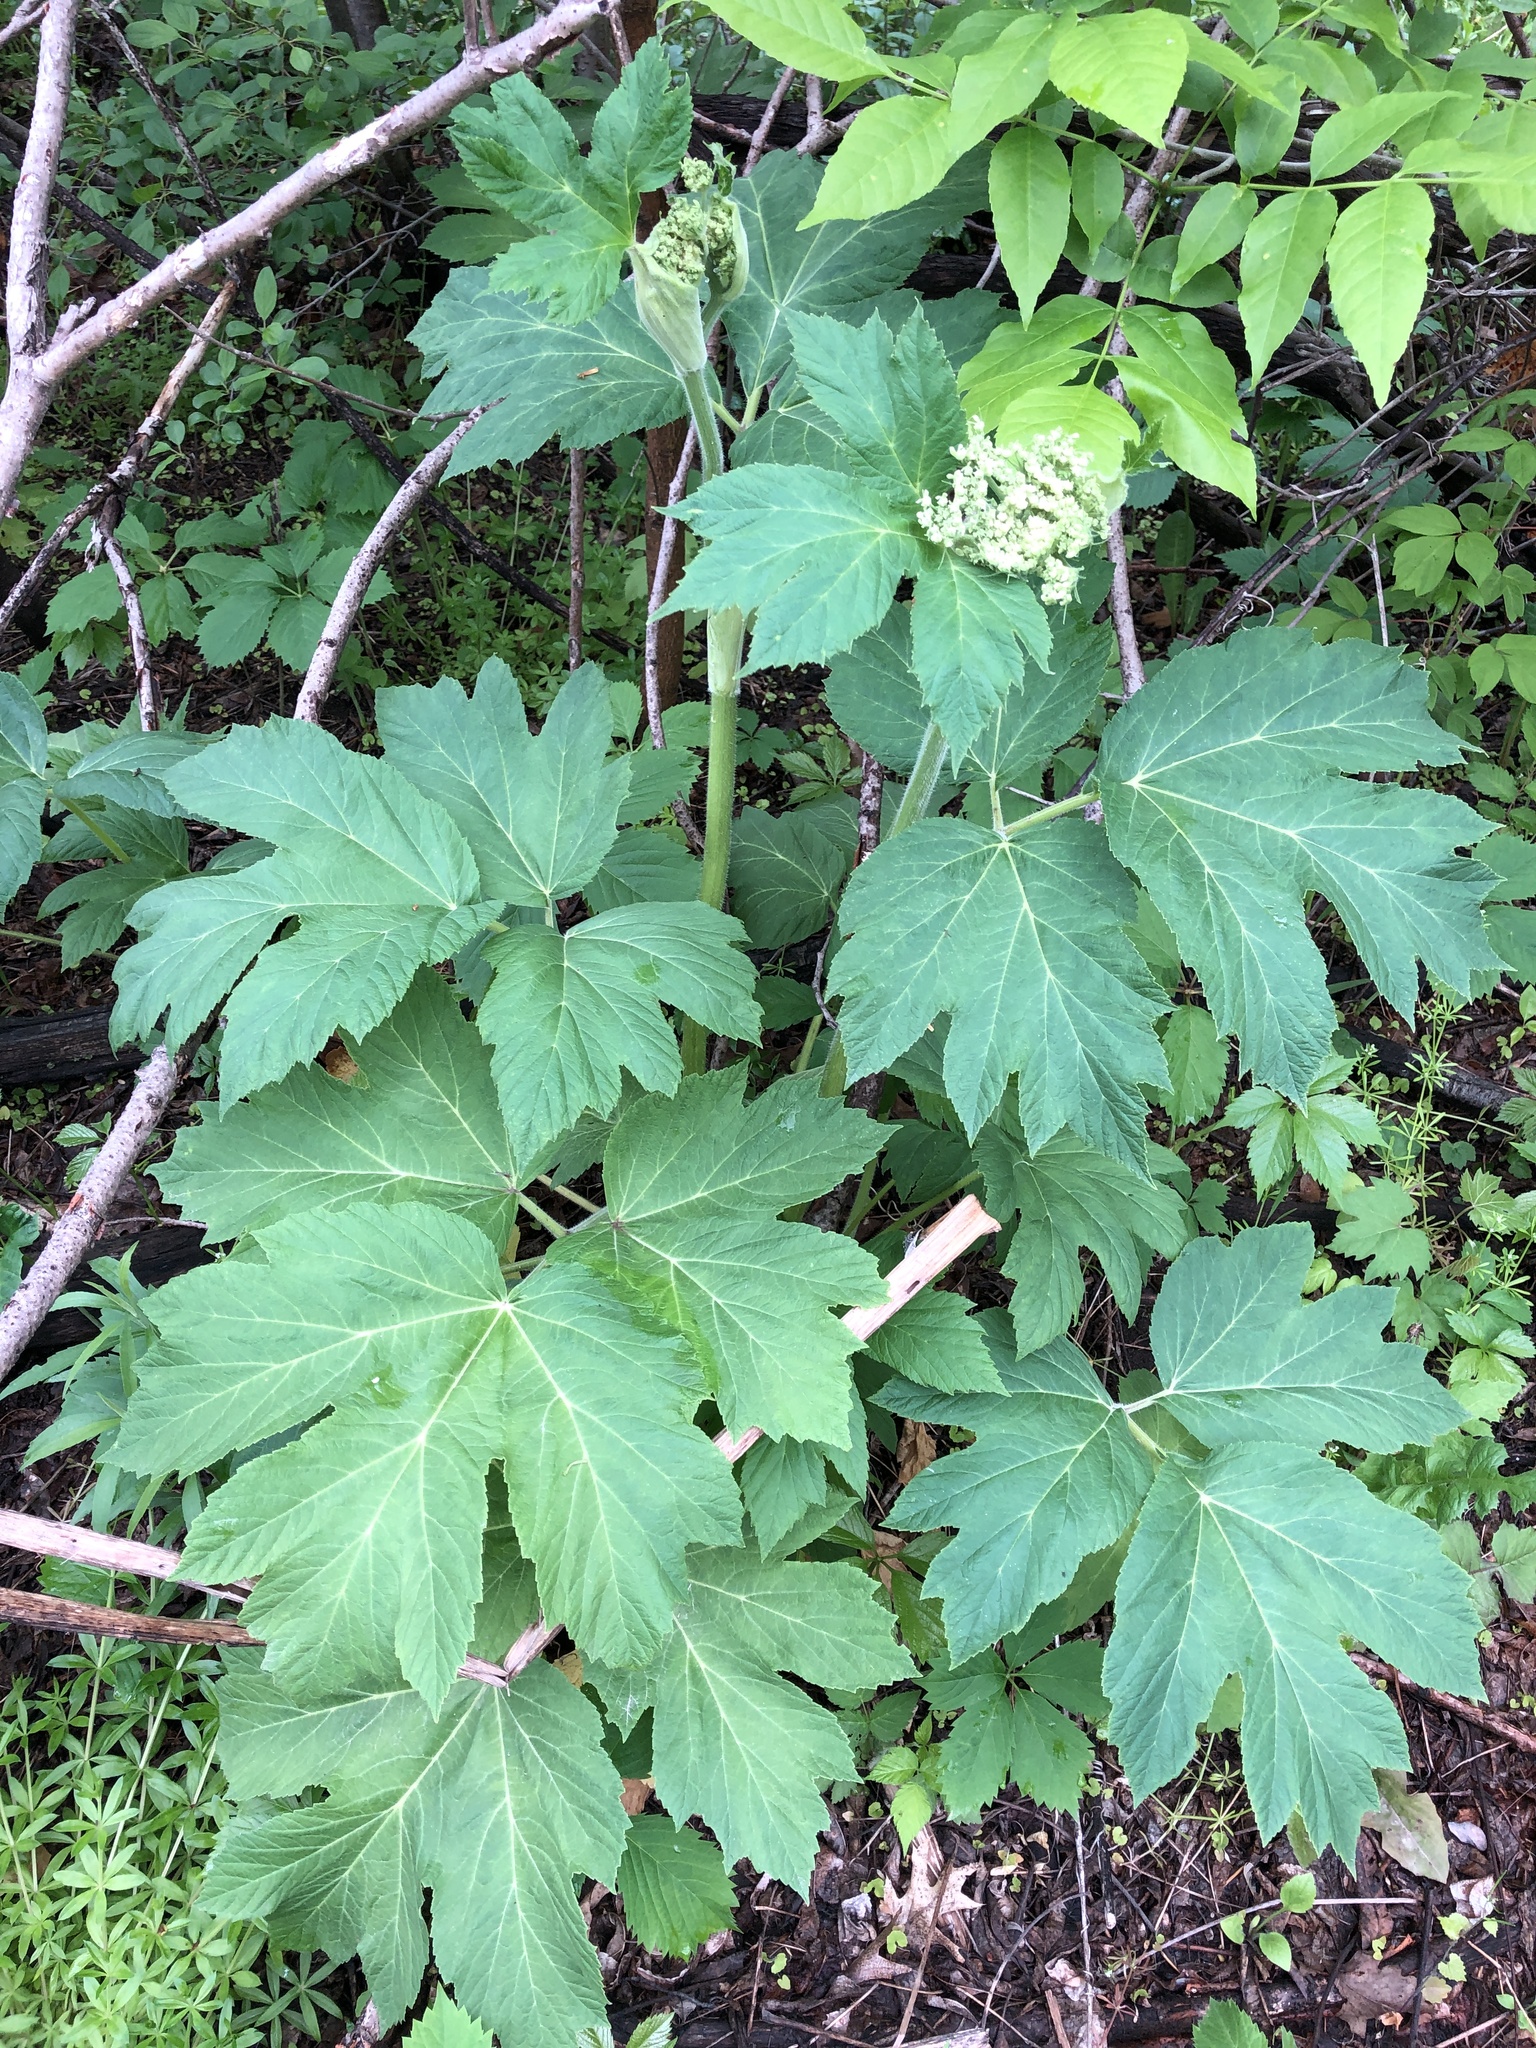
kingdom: Plantae
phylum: Tracheophyta
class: Magnoliopsida
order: Apiales
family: Apiaceae
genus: Heracleum
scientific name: Heracleum maximum
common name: American cow parsnip
